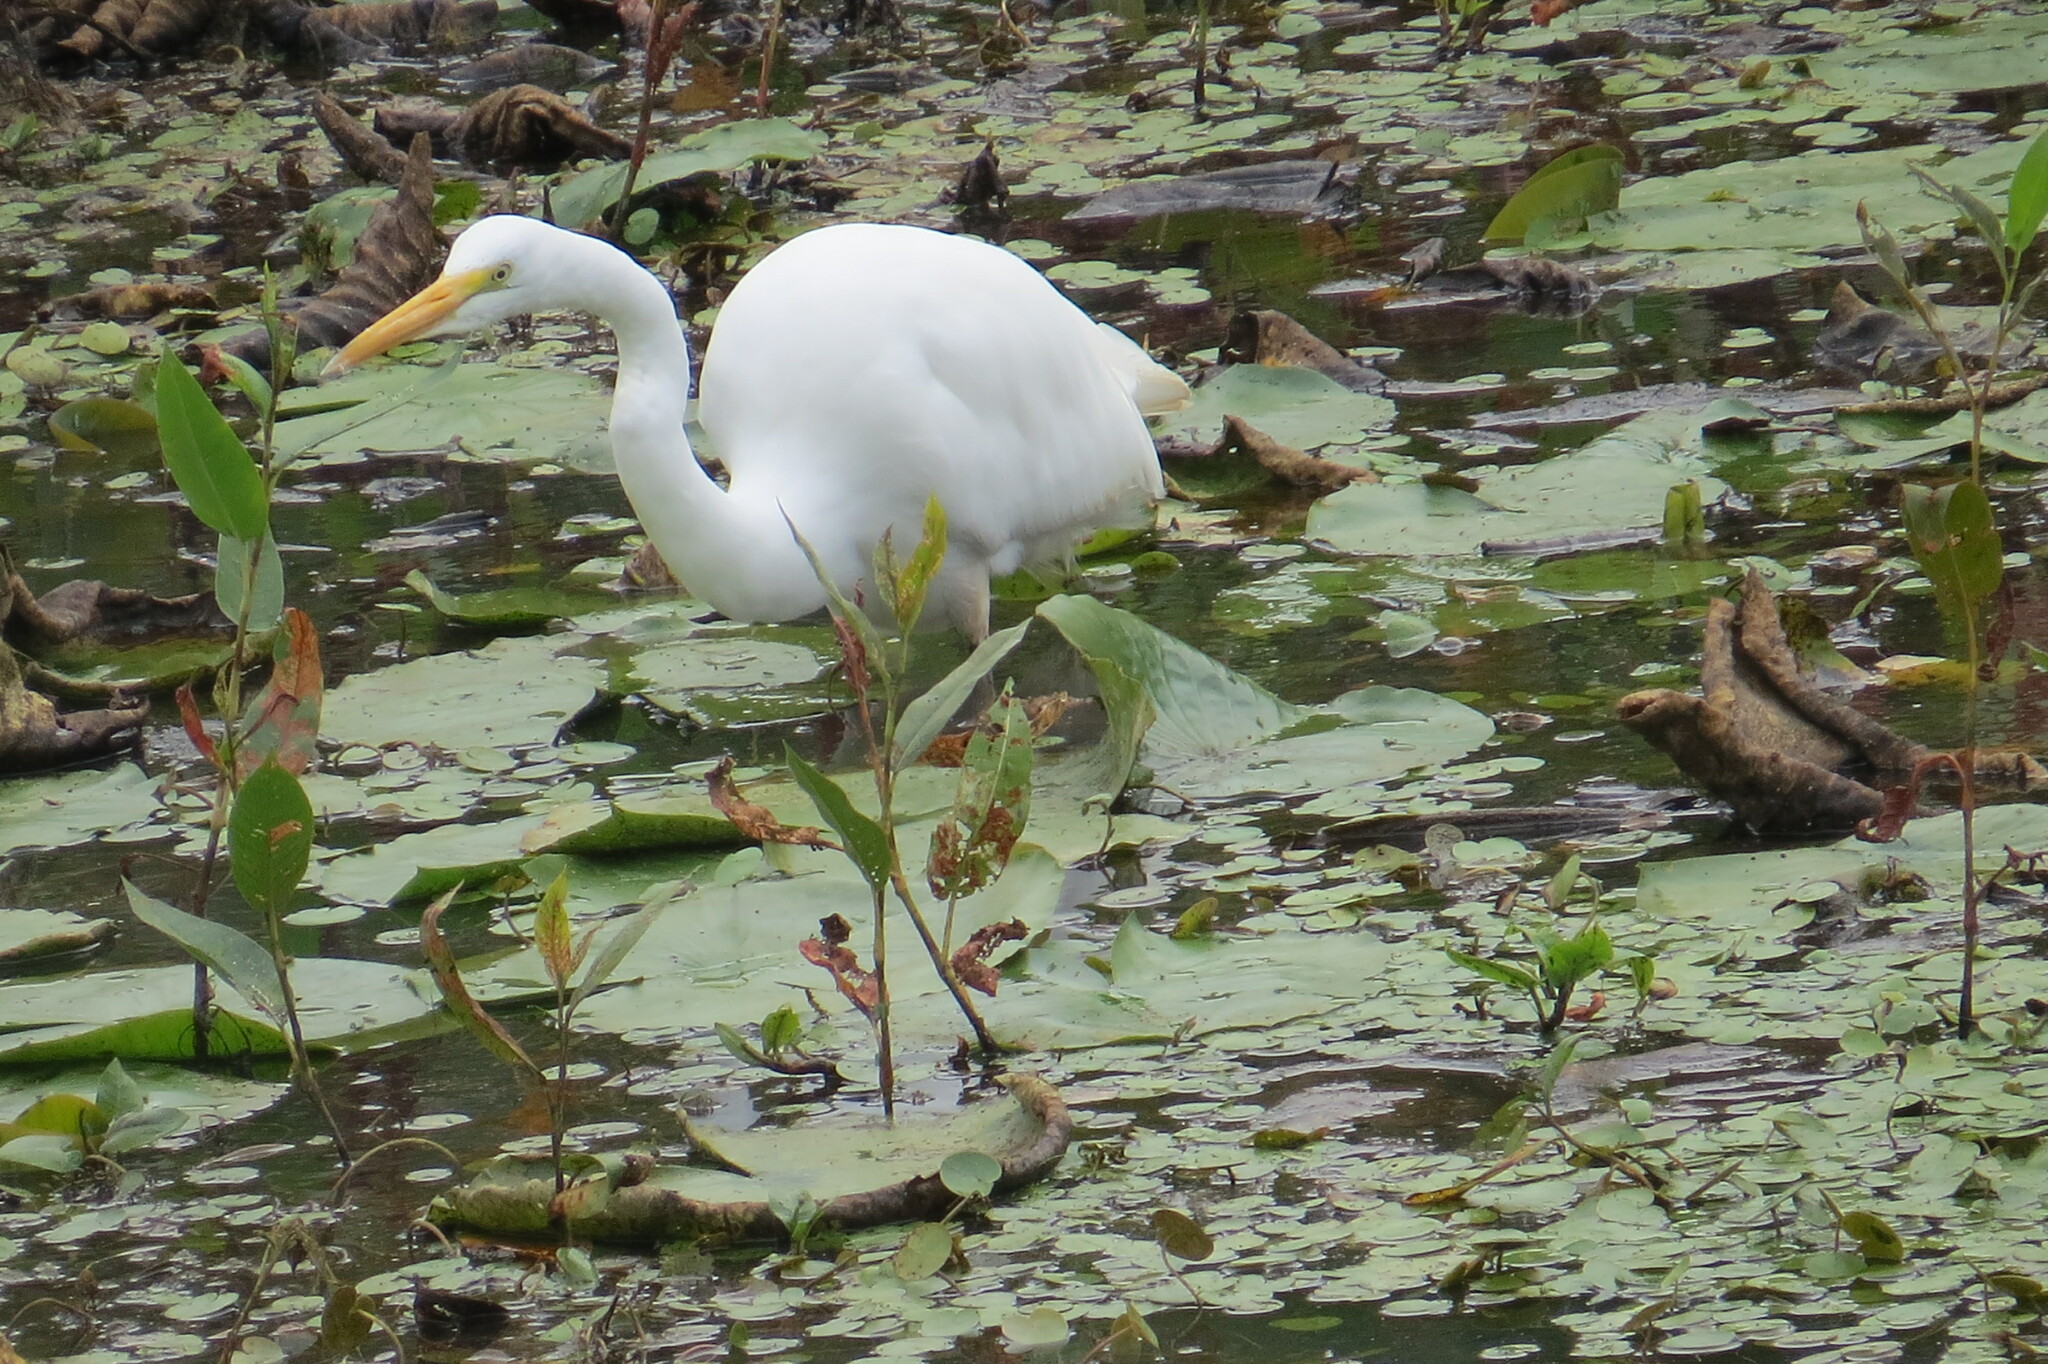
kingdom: Animalia
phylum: Chordata
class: Aves
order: Pelecaniformes
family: Ardeidae
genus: Ardea
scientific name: Ardea alba
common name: Great egret
